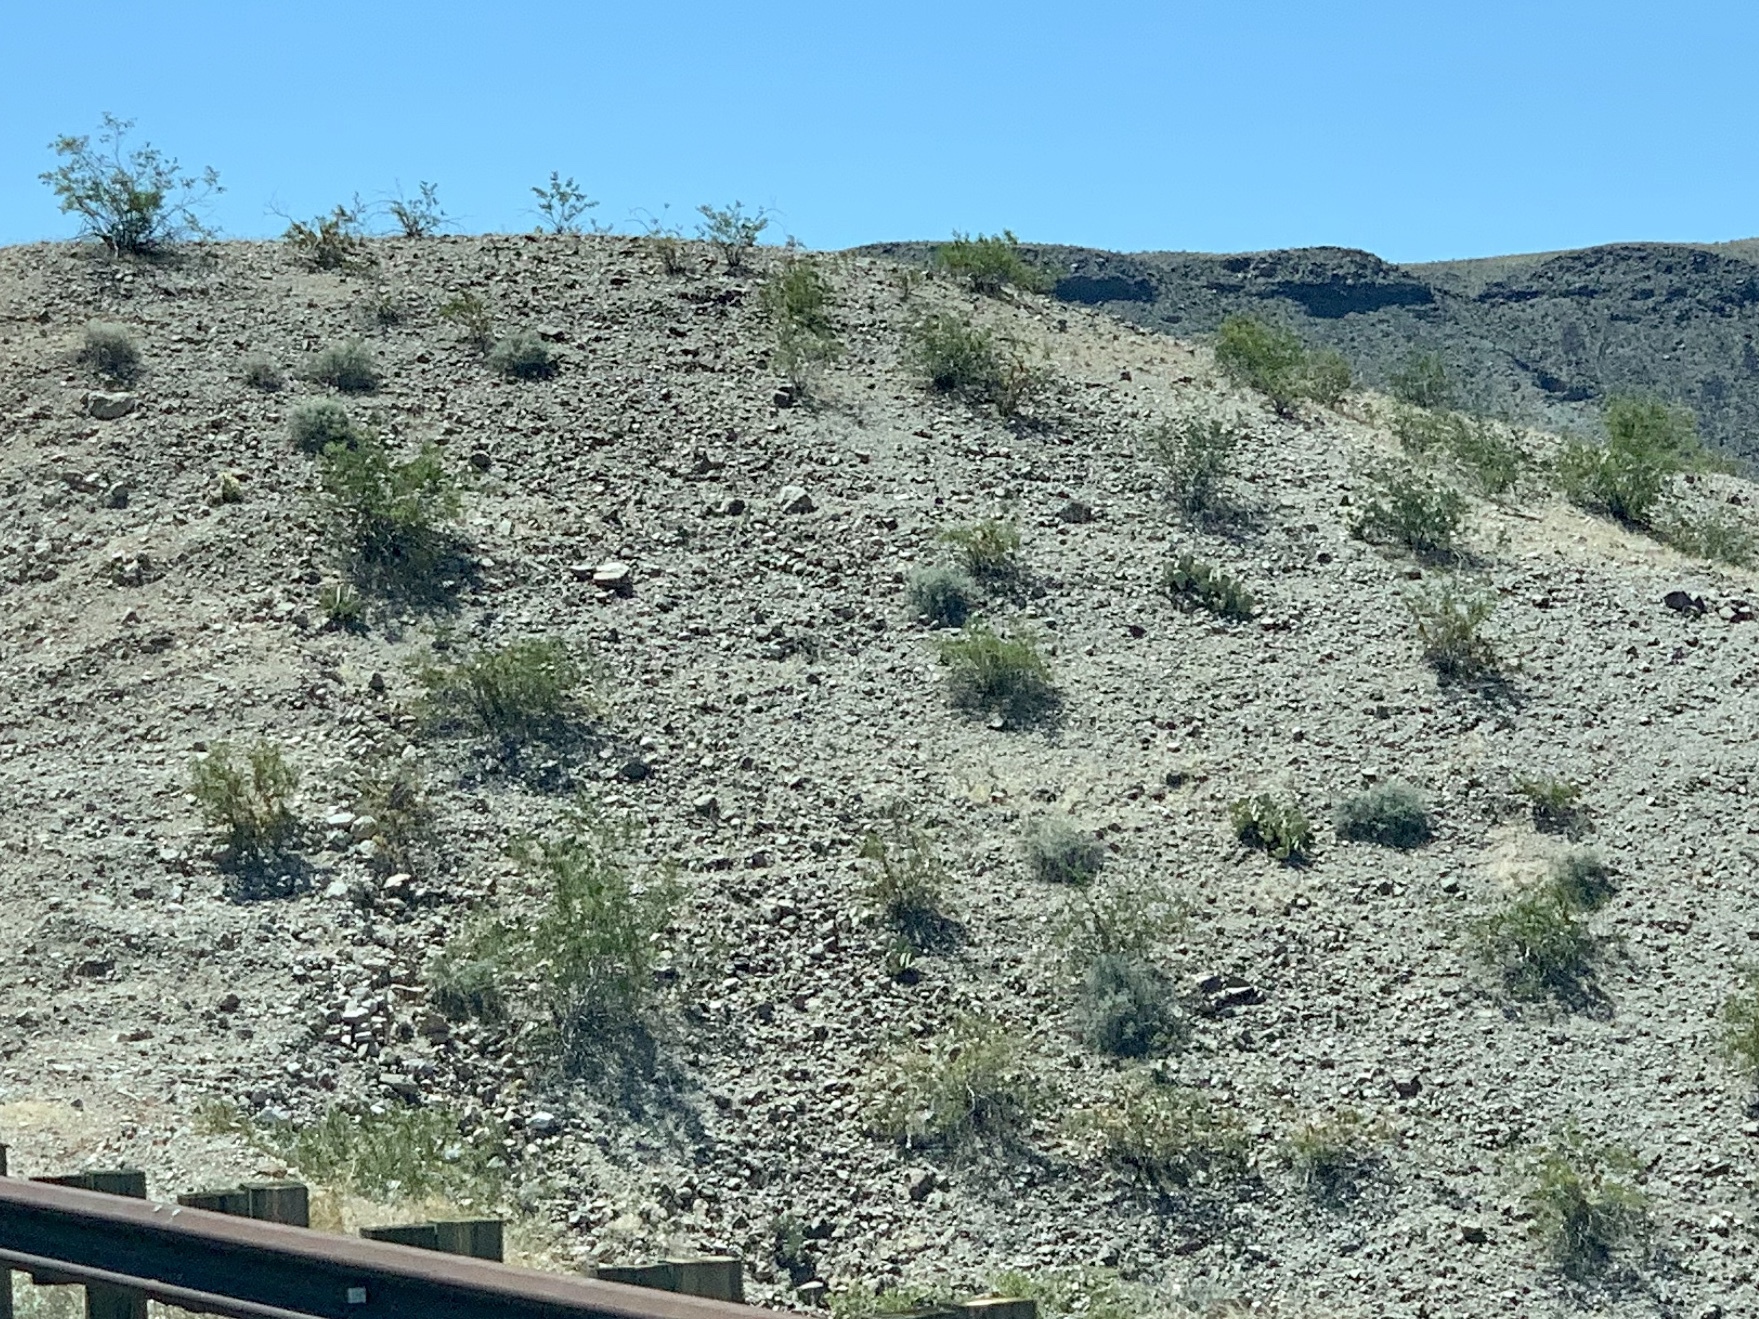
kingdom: Plantae
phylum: Tracheophyta
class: Magnoliopsida
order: Zygophyllales
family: Zygophyllaceae
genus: Larrea
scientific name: Larrea tridentata
